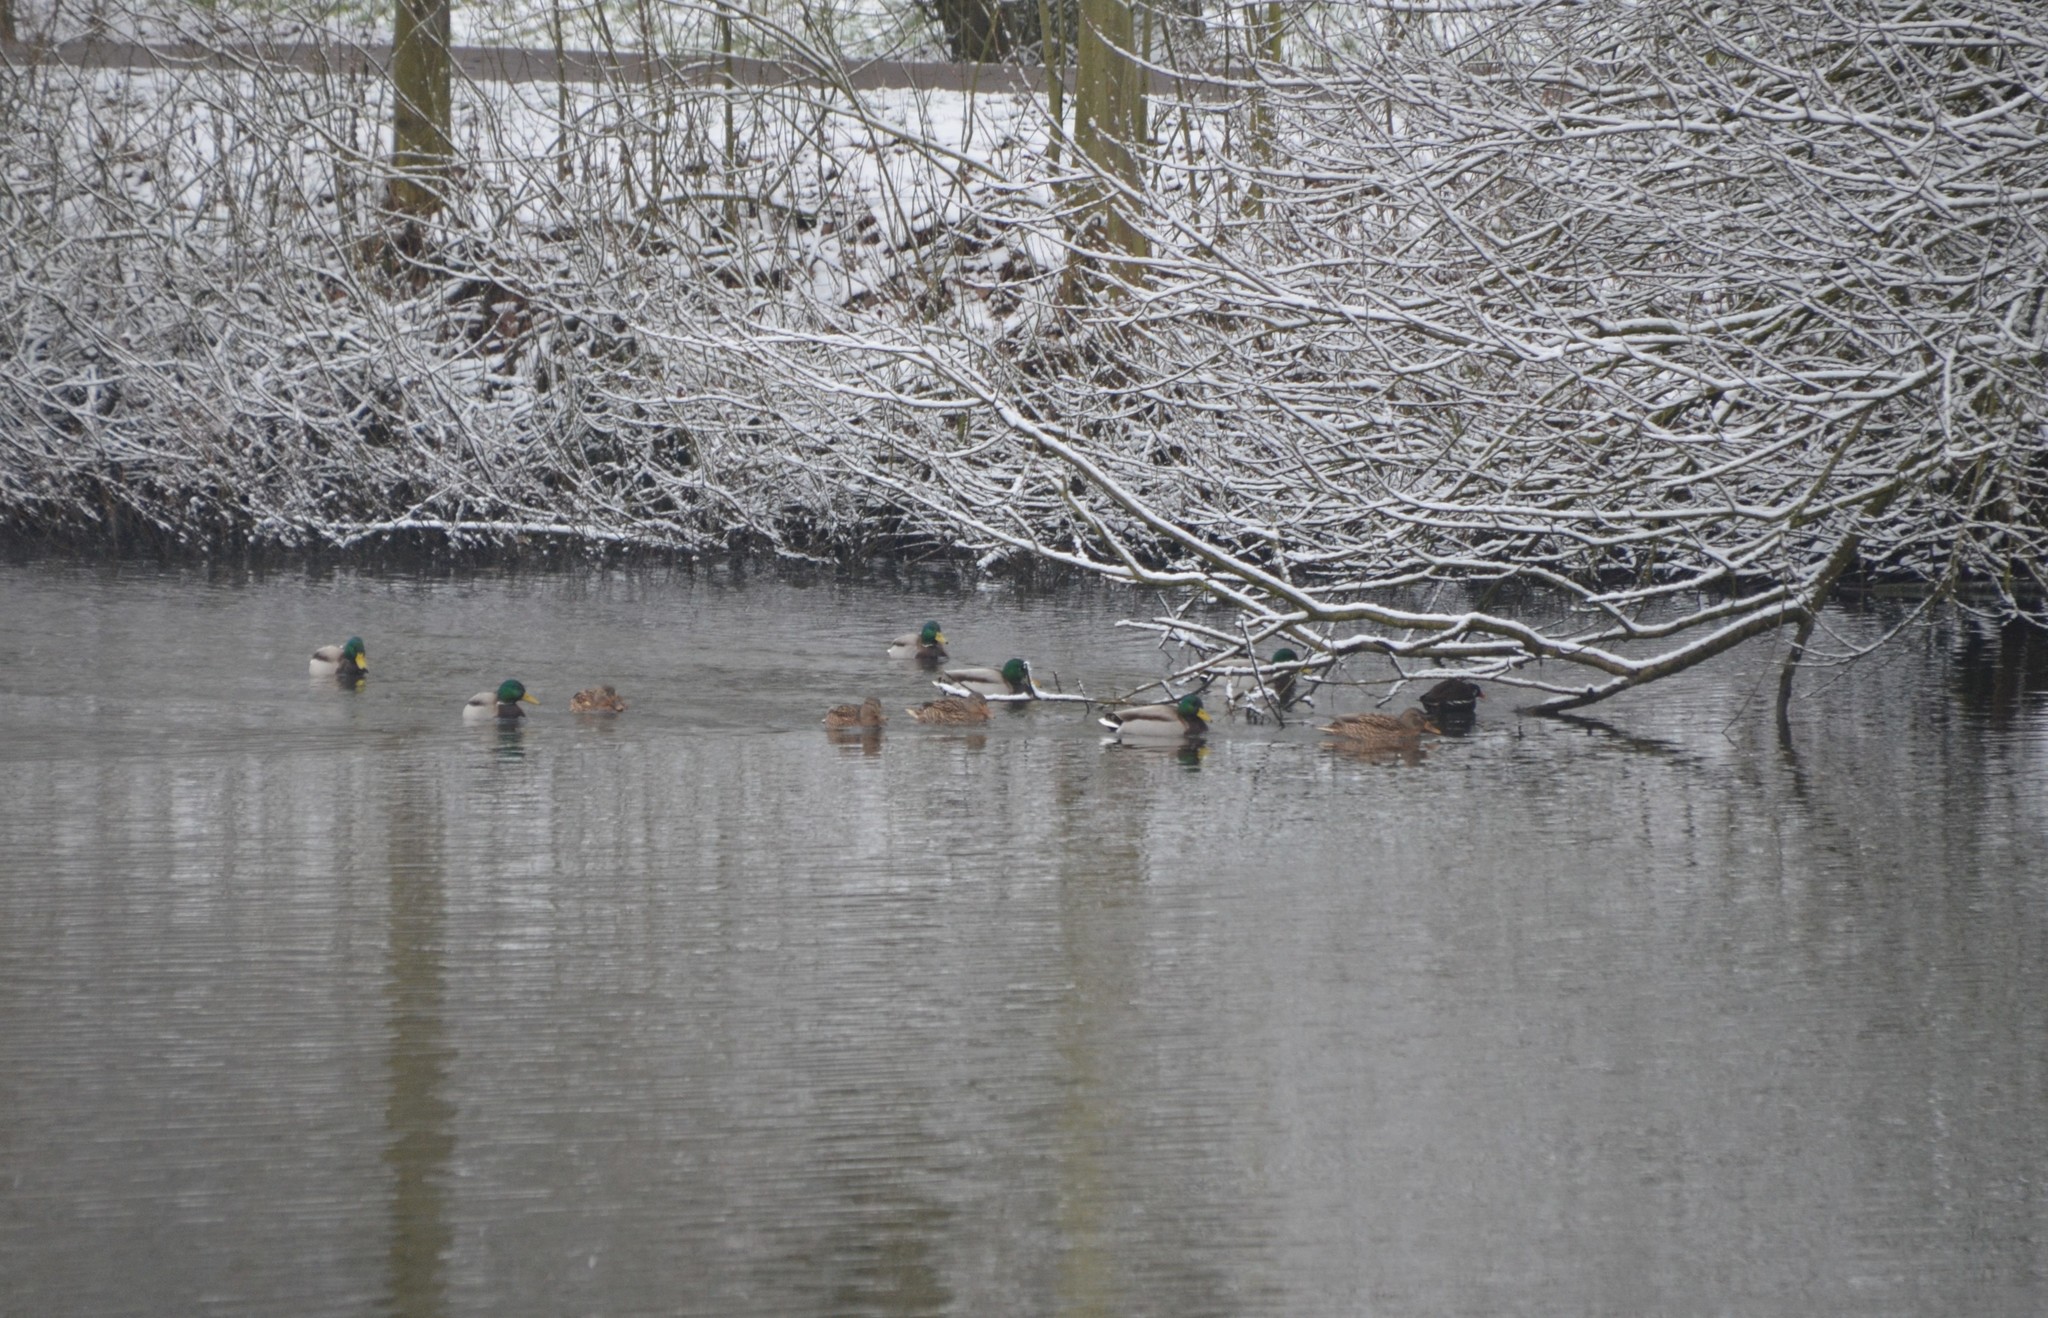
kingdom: Animalia
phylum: Chordata
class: Aves
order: Anseriformes
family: Anatidae
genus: Anas
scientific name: Anas platyrhynchos
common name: Mallard
